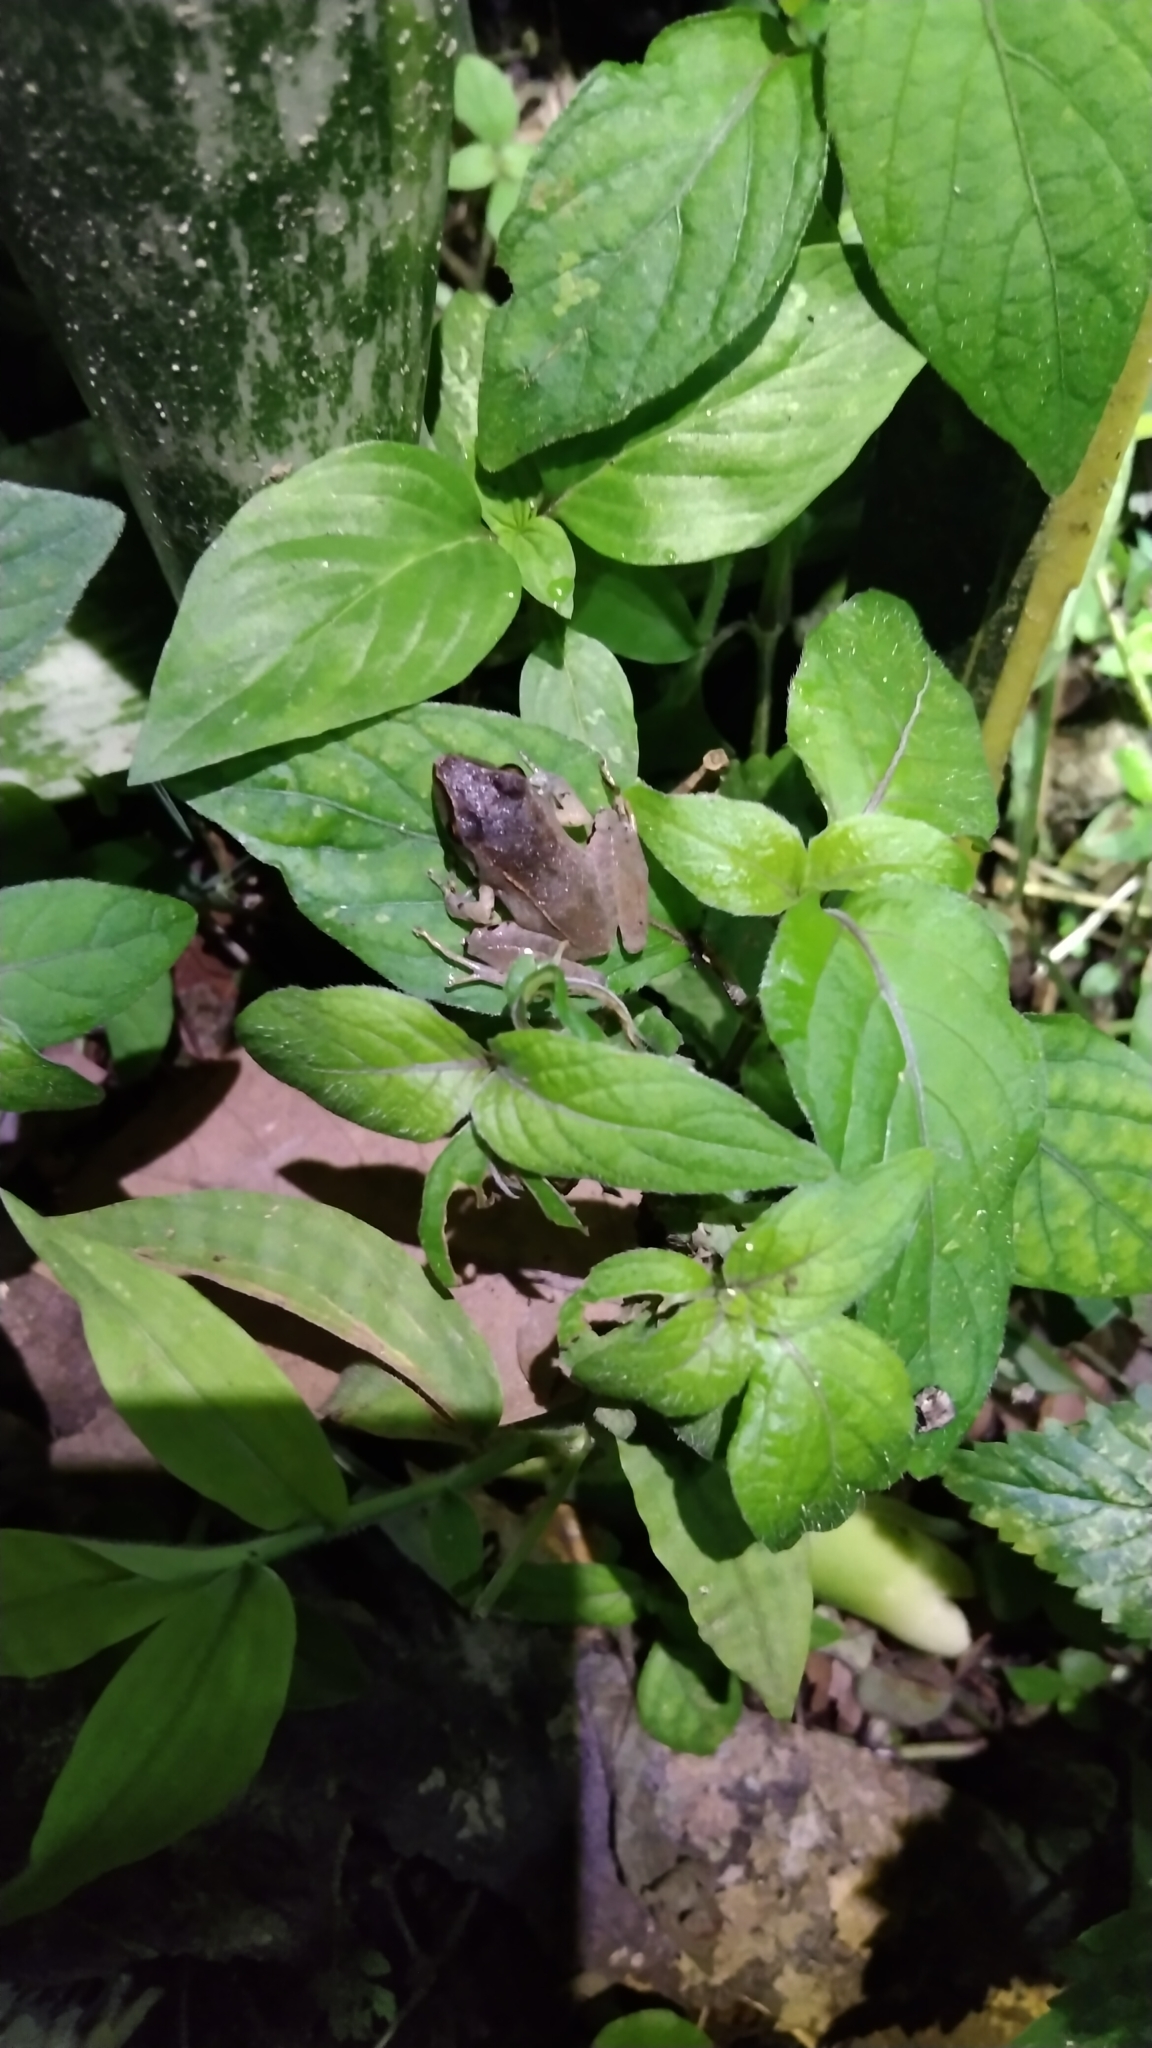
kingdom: Animalia
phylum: Chordata
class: Amphibia
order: Anura
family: Craugastoridae
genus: Pristimantis
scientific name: Pristimantis achatinus
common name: Cachabi robber frog
